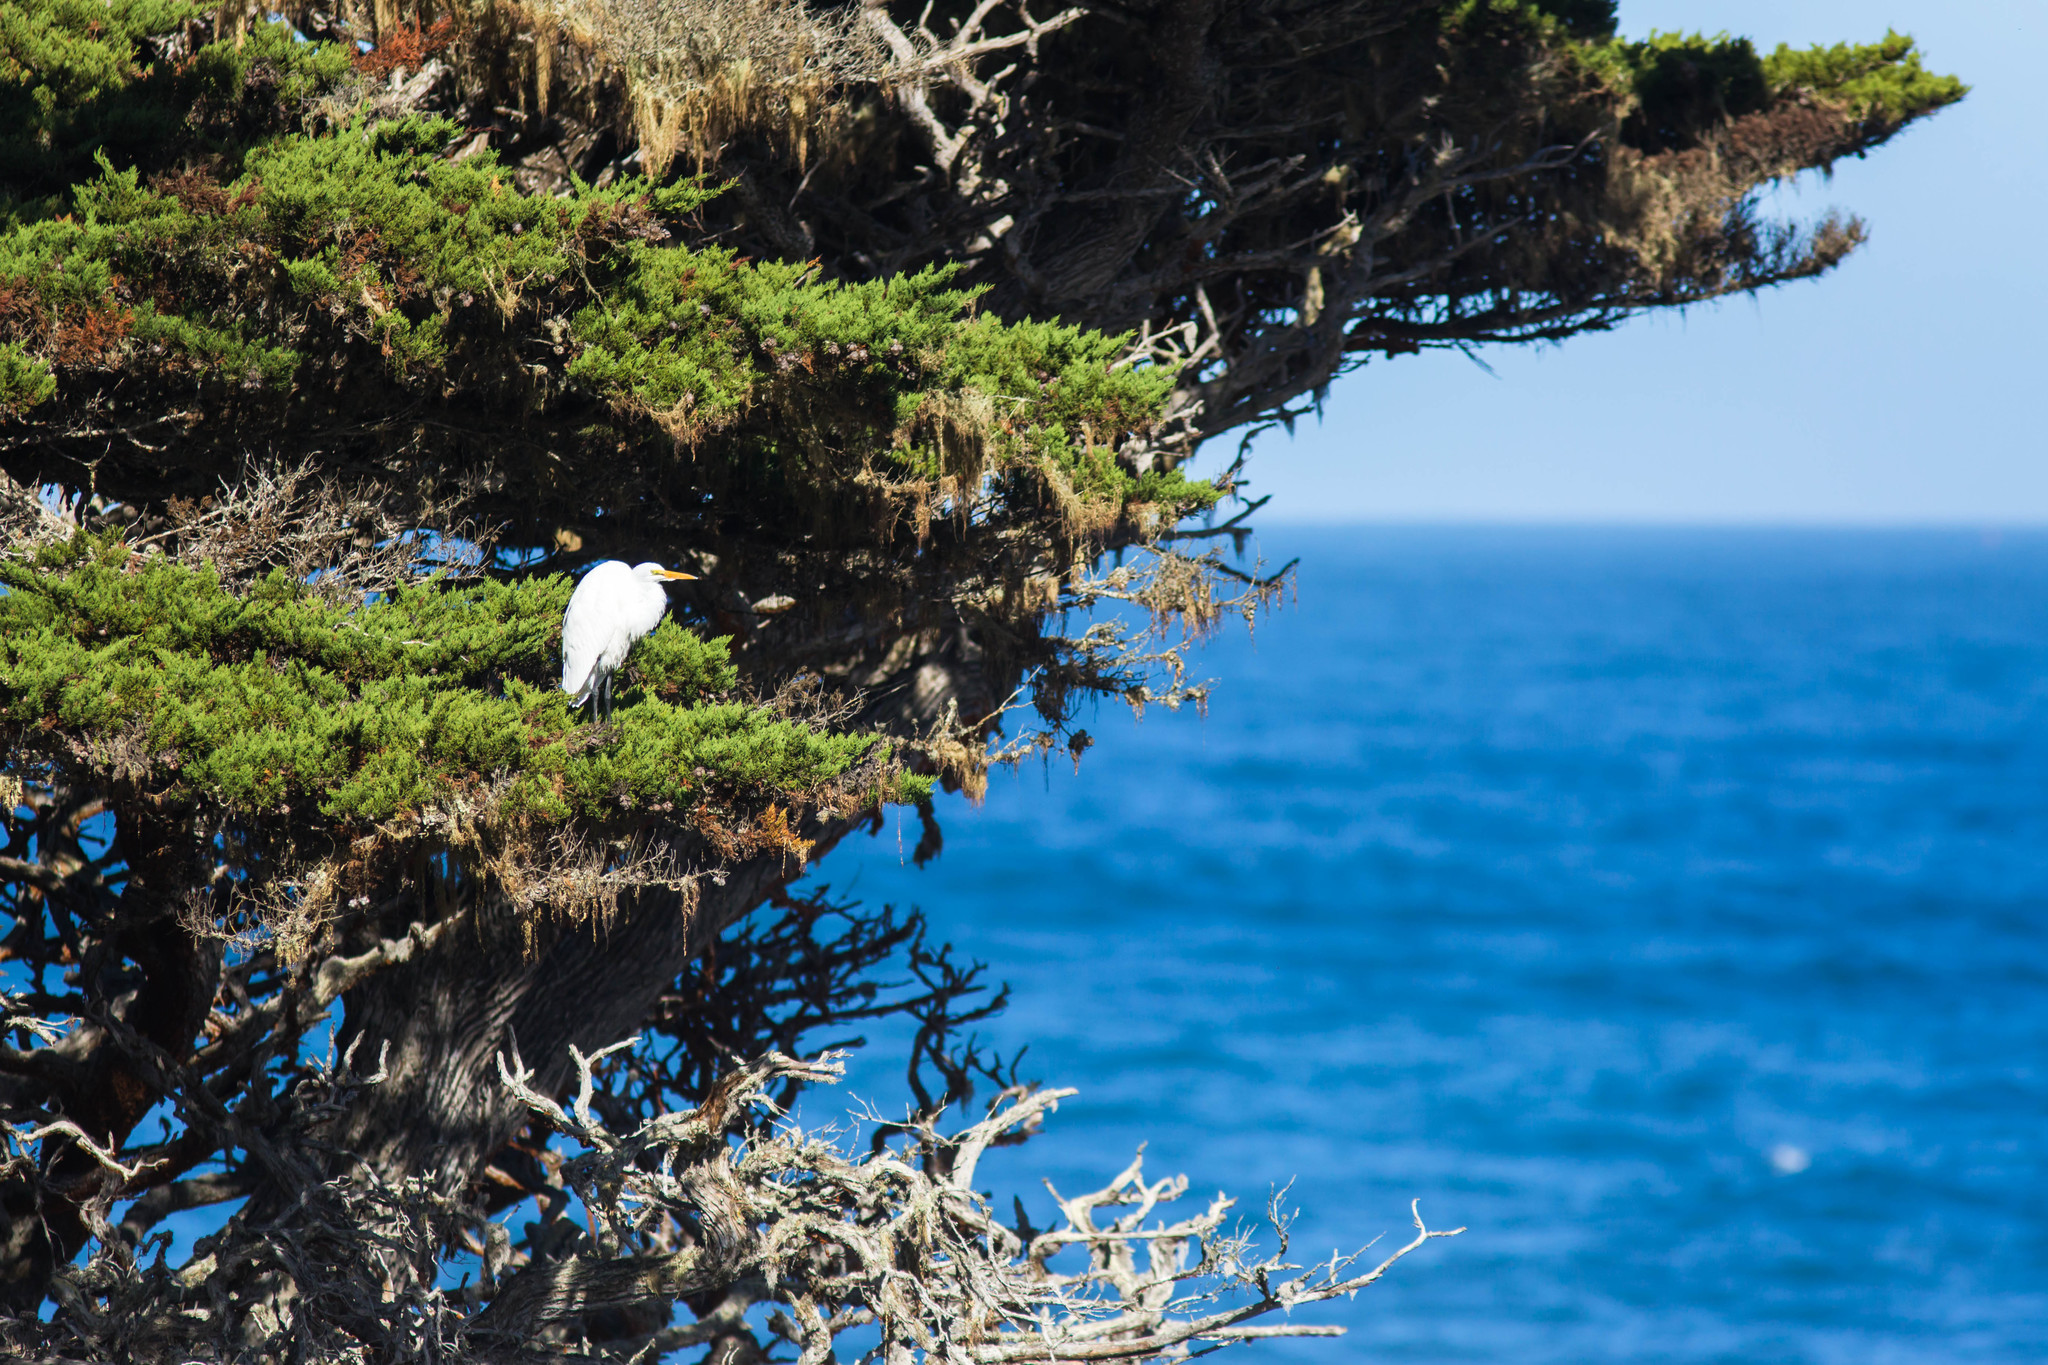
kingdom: Animalia
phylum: Chordata
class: Aves
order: Pelecaniformes
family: Ardeidae
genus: Ardea
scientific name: Ardea alba
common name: Great egret
